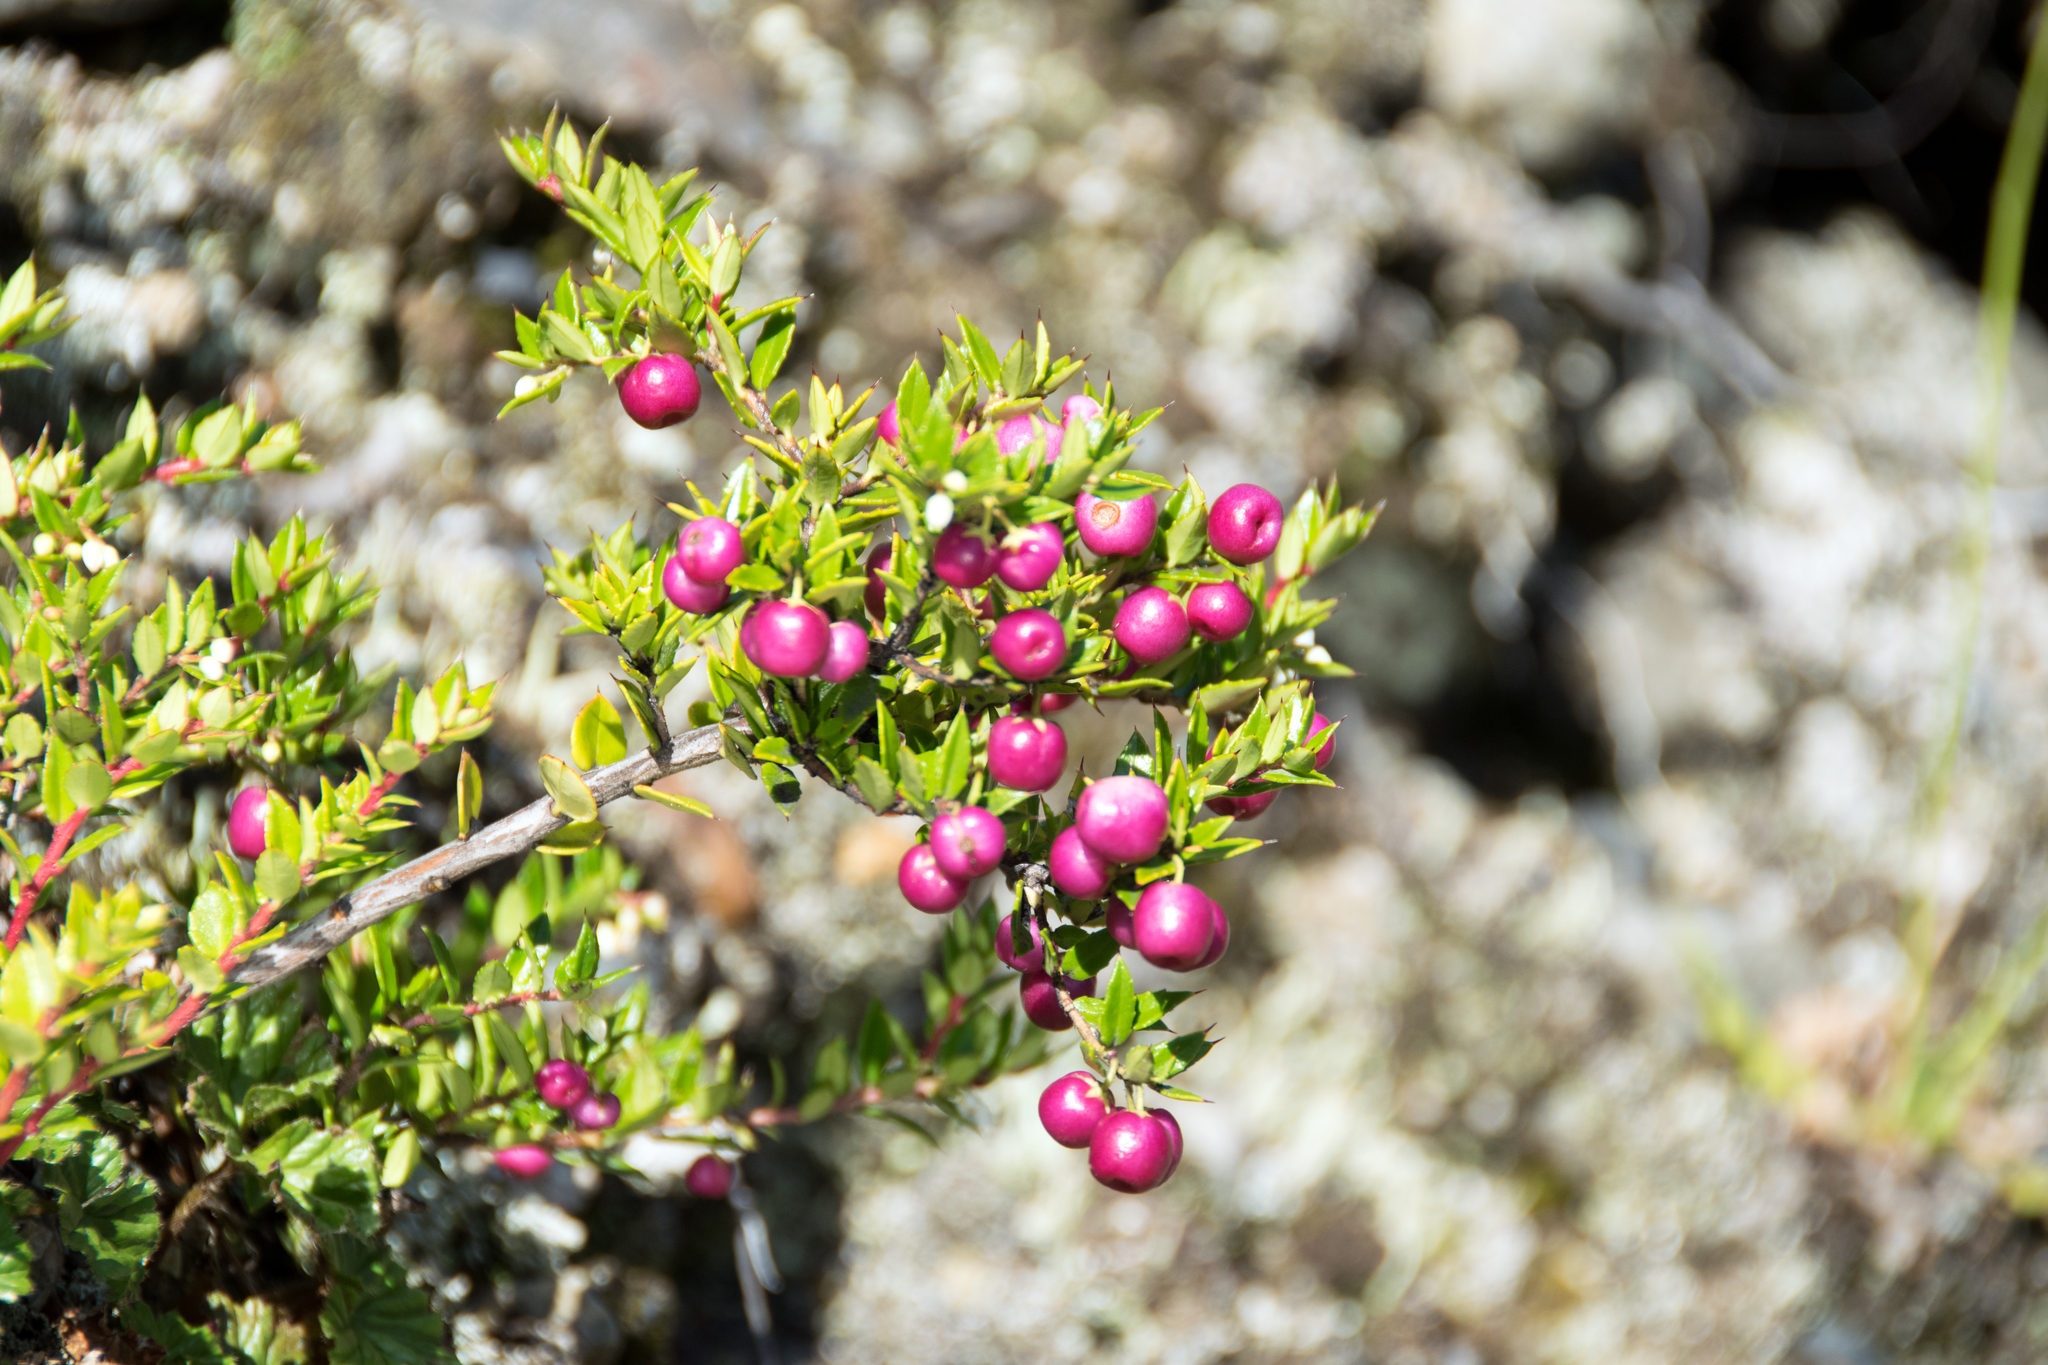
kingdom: Plantae
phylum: Tracheophyta
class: Magnoliopsida
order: Ericales
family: Ericaceae
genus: Gaultheria
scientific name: Gaultheria mucronata
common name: Prickly heath
